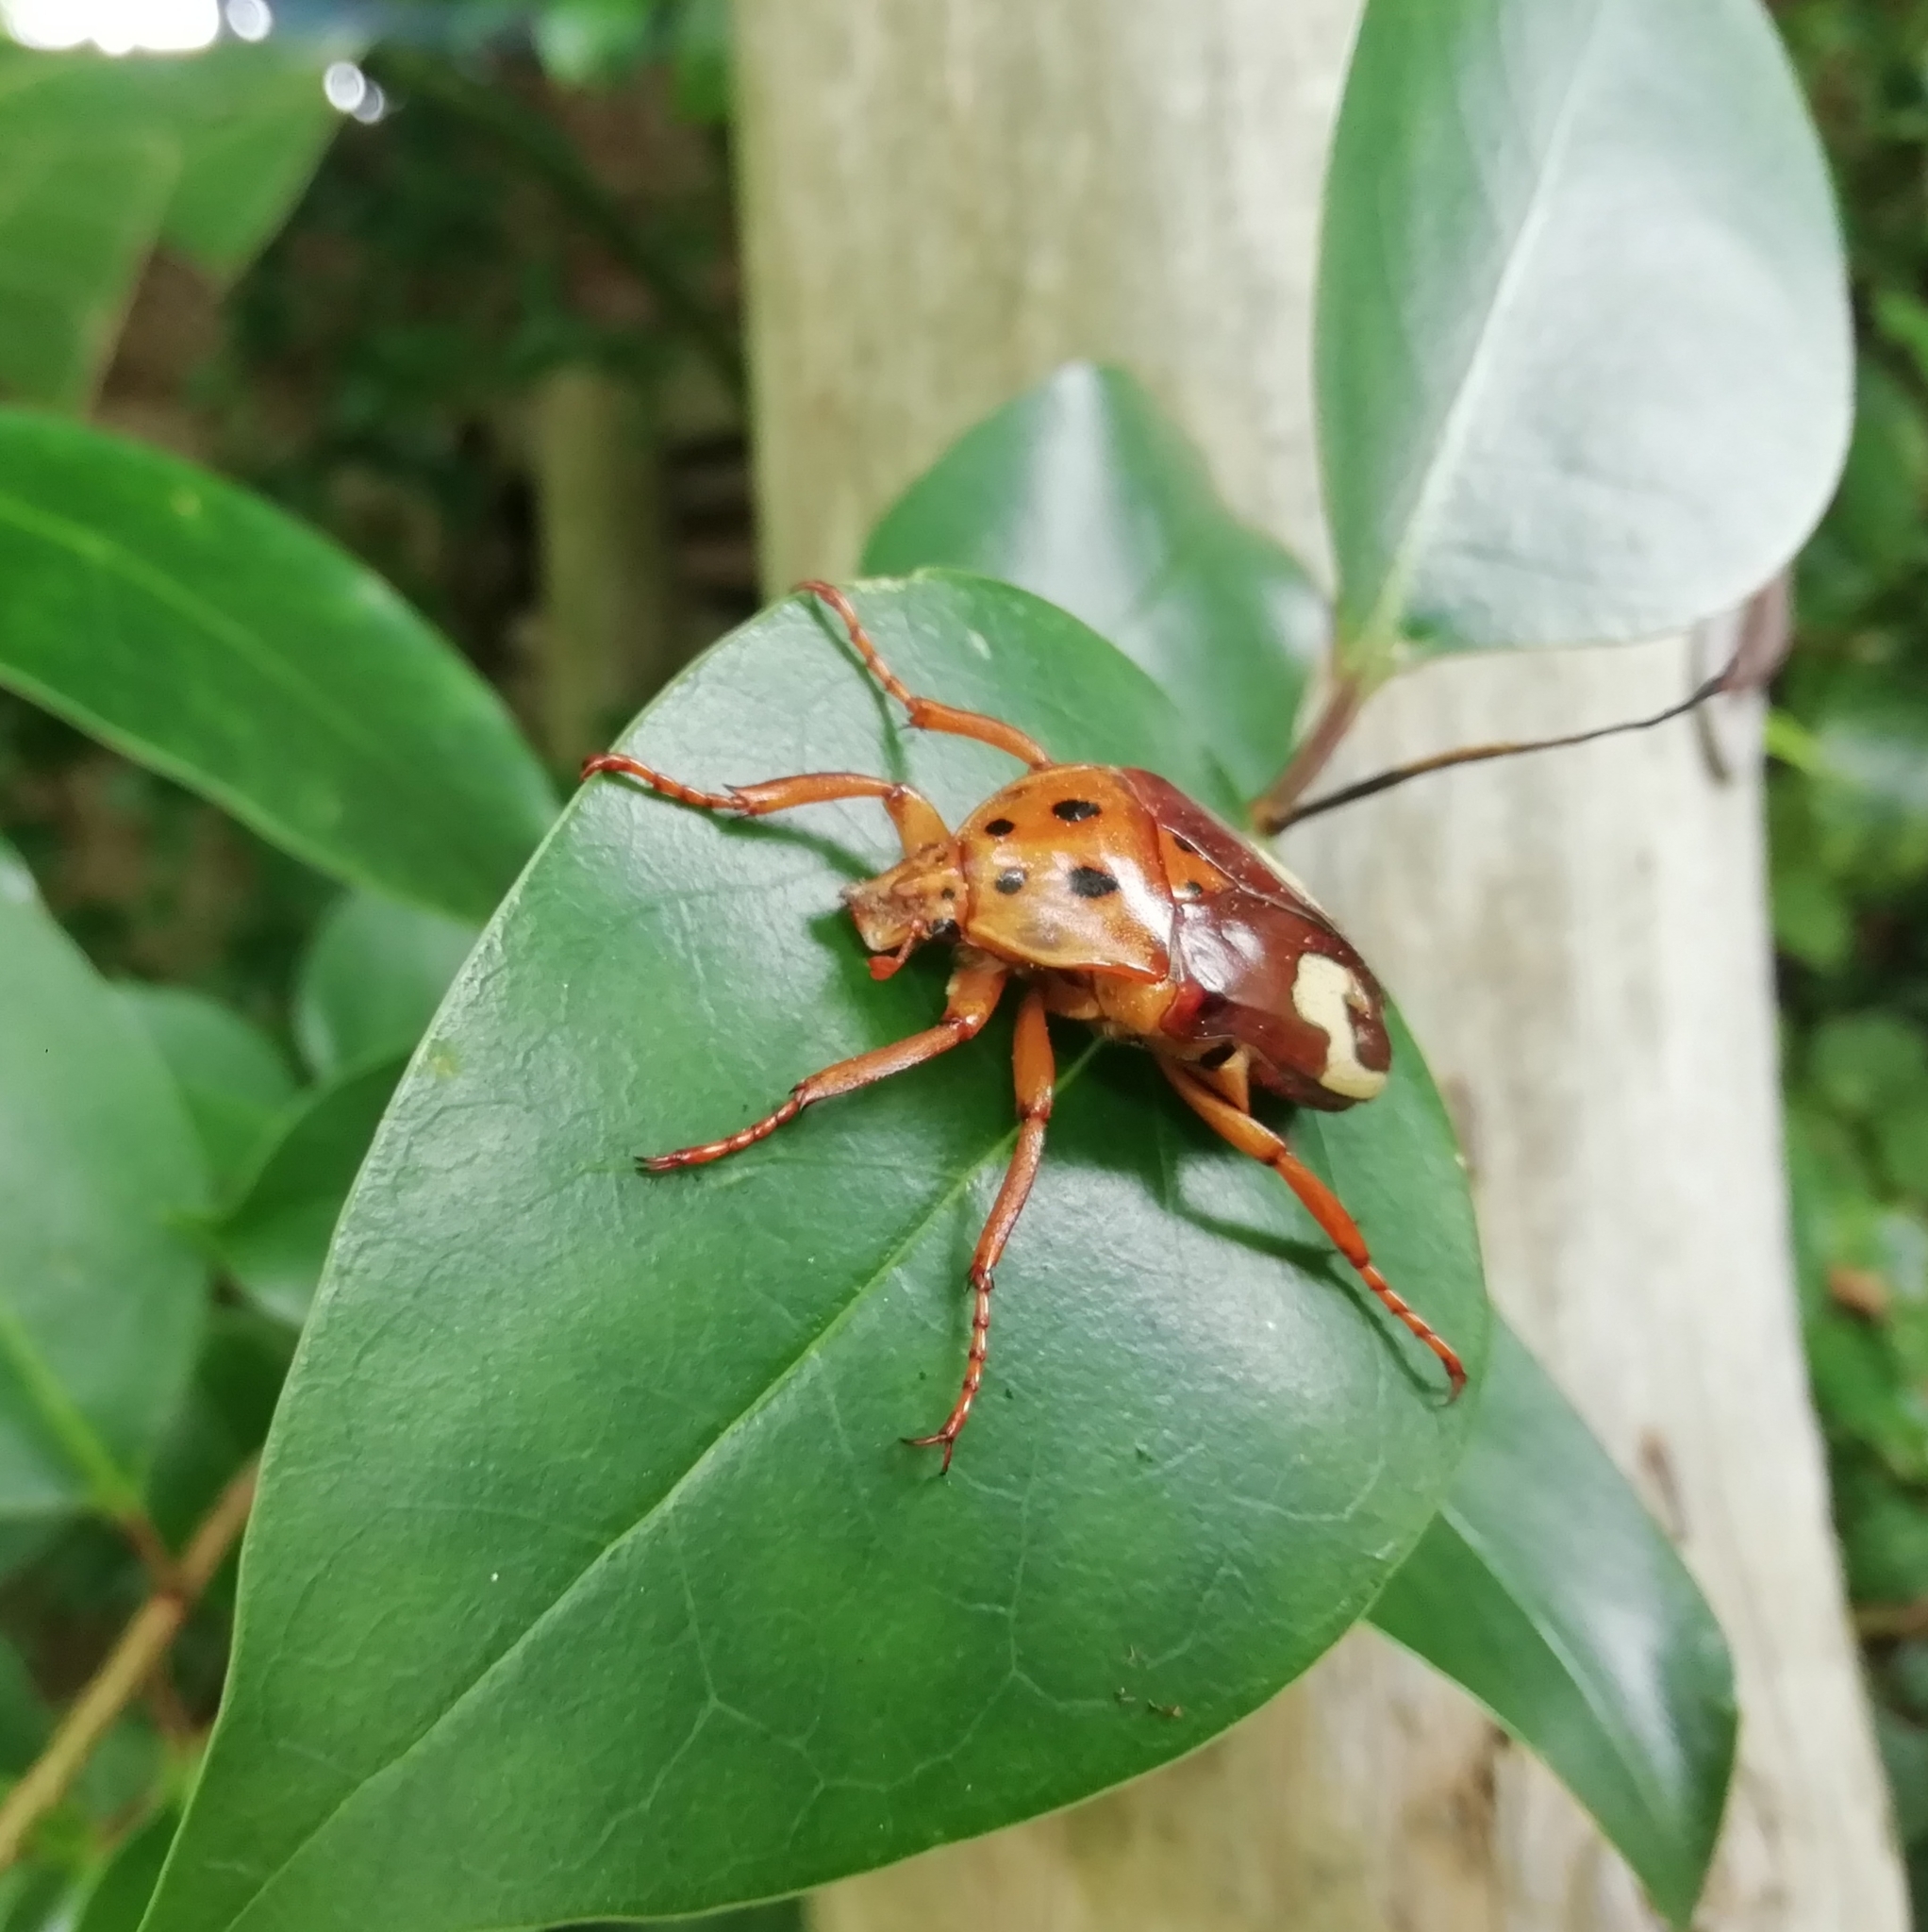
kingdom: Animalia
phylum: Arthropoda
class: Insecta
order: Coleoptera
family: Scarabaeidae
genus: Anisorrhina
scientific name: Anisorrhina flavomaculata
